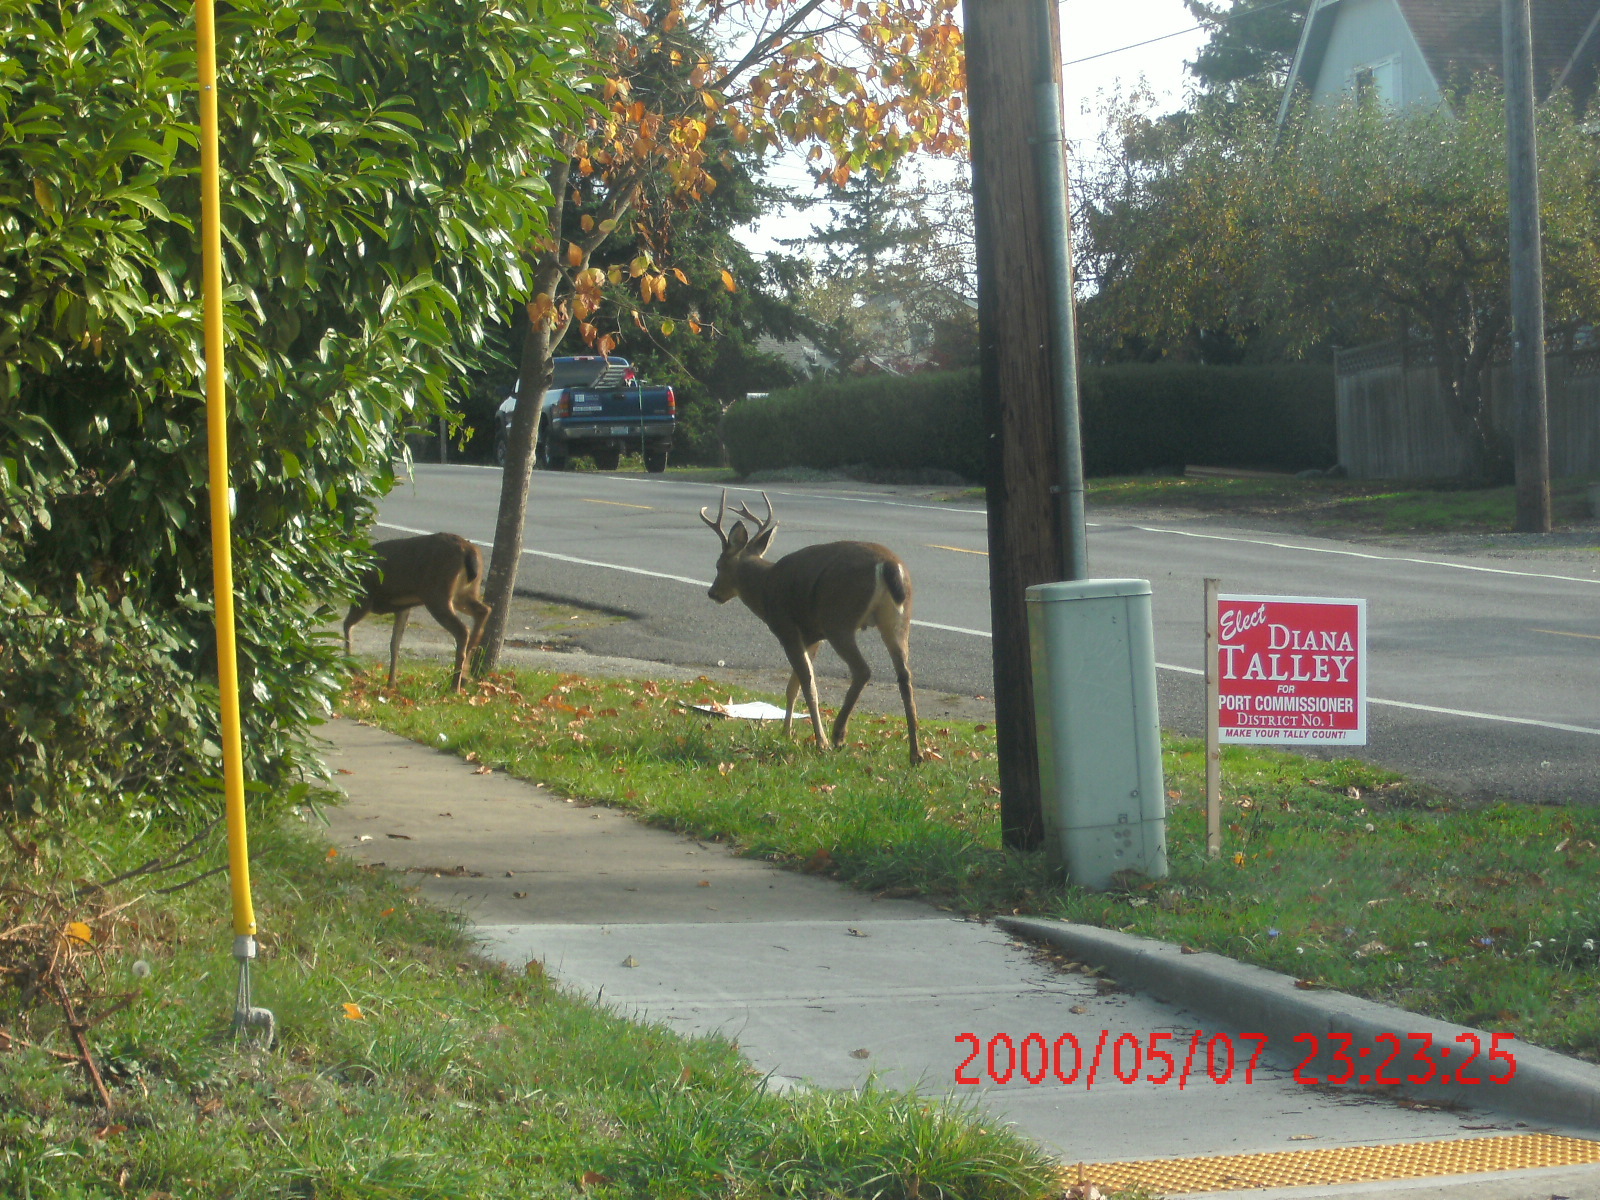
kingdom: Animalia
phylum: Chordata
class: Mammalia
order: Artiodactyla
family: Cervidae
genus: Odocoileus
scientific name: Odocoileus hemionus
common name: Mule deer
